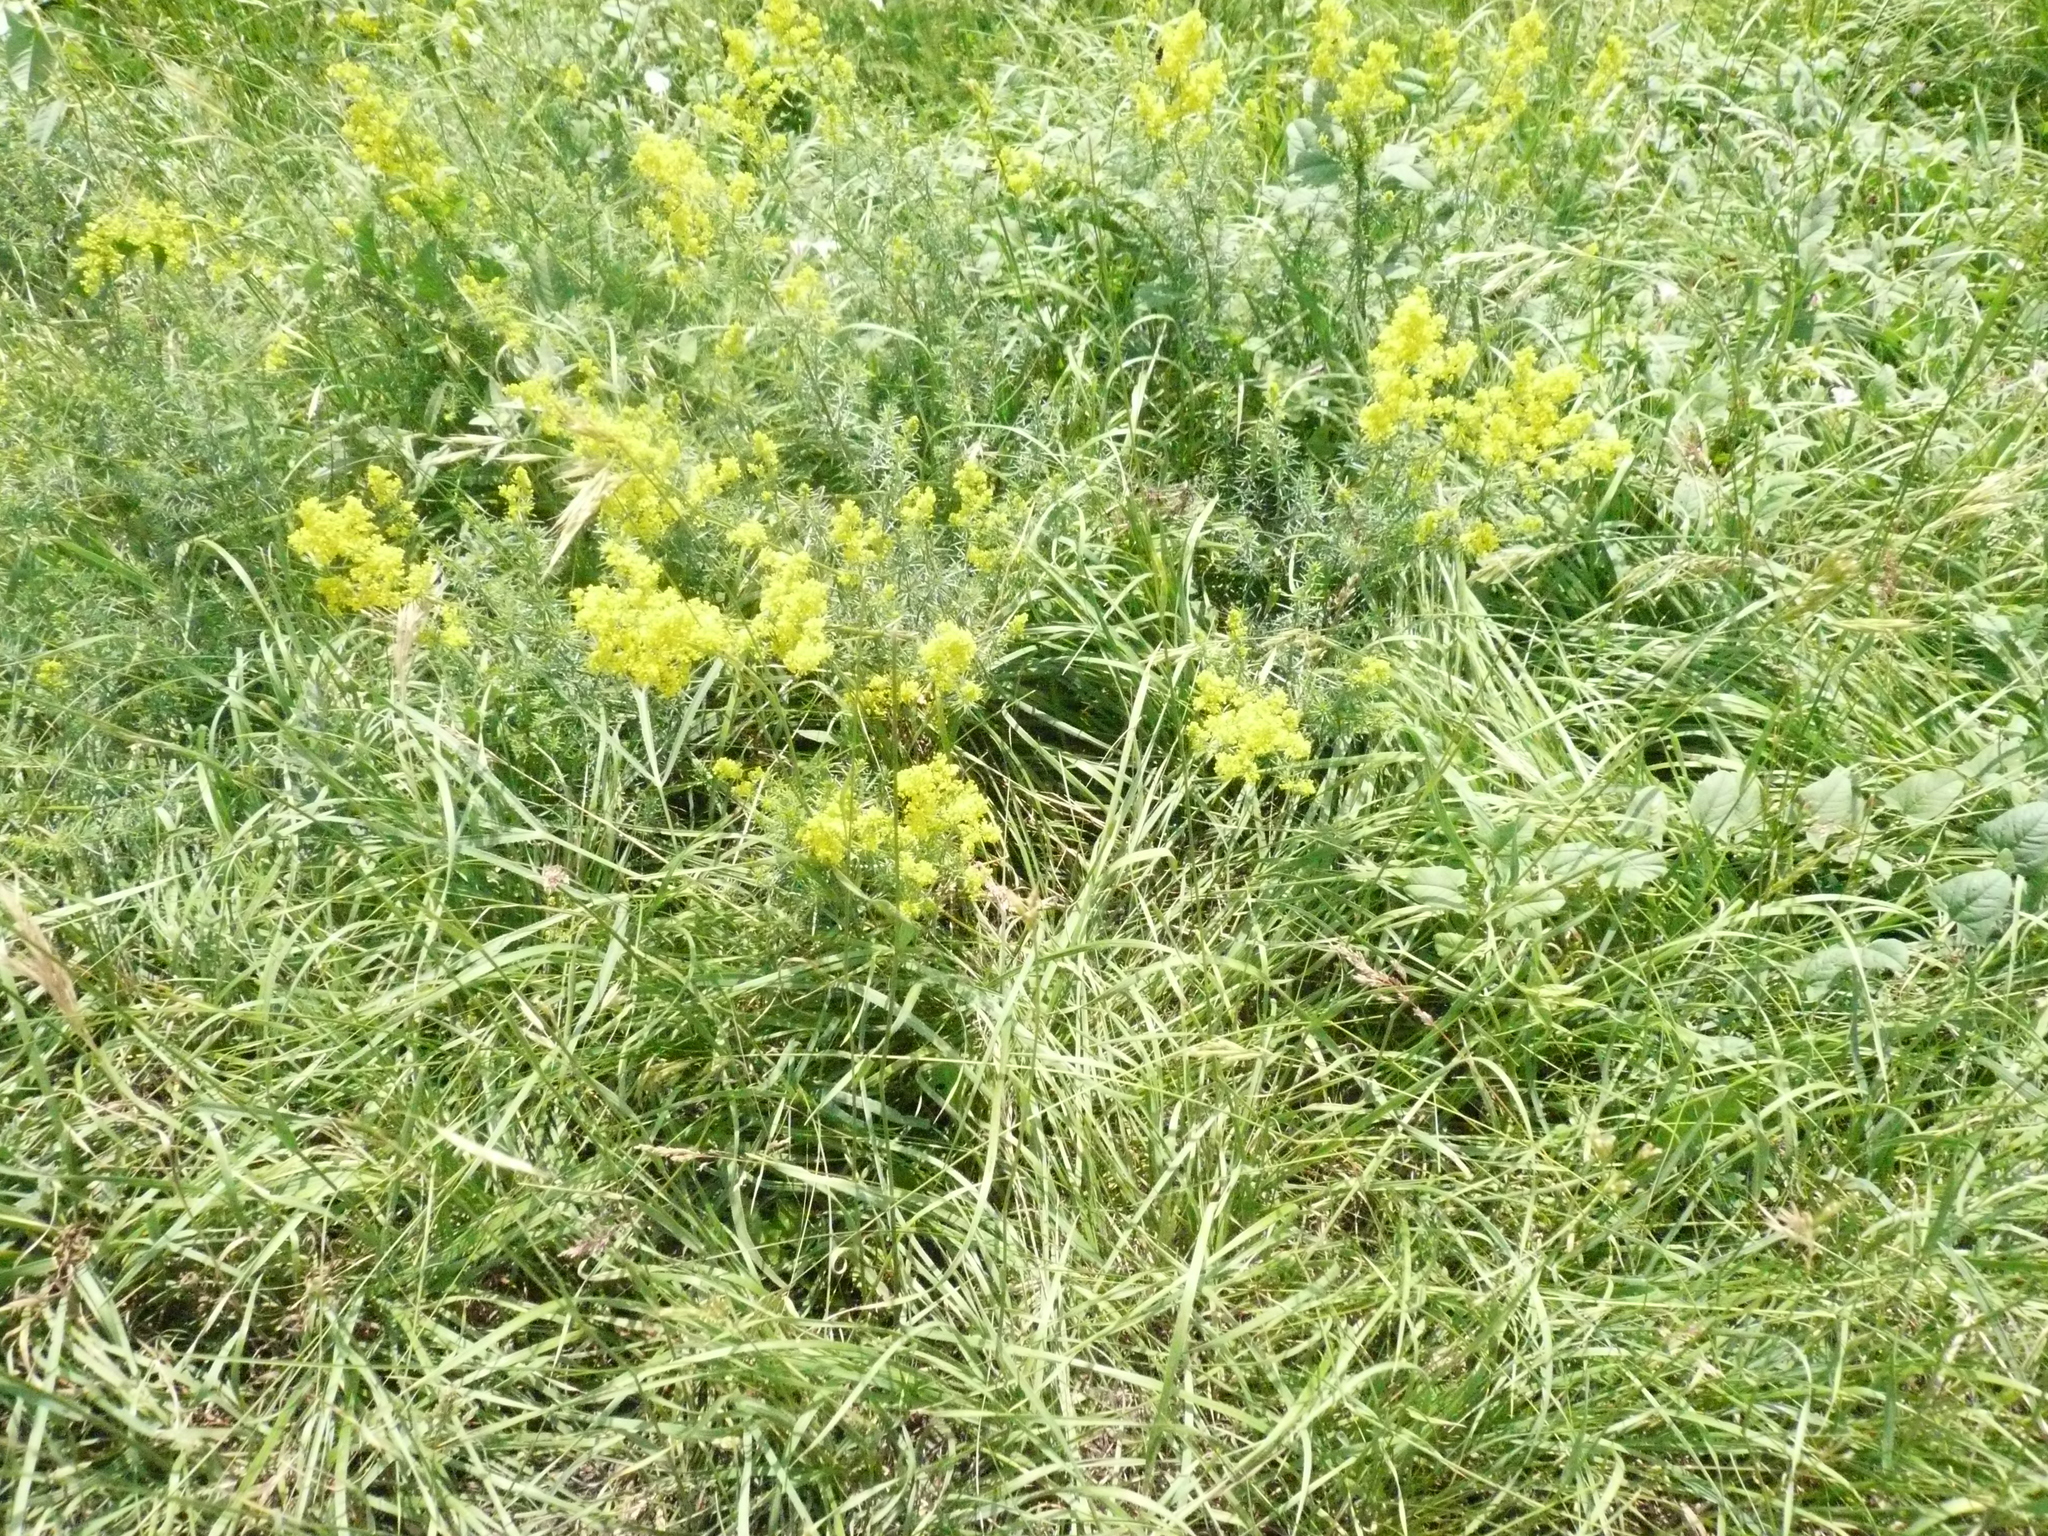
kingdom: Plantae
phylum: Tracheophyta
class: Magnoliopsida
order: Gentianales
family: Rubiaceae
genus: Galium
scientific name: Galium verum
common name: Lady's bedstraw
